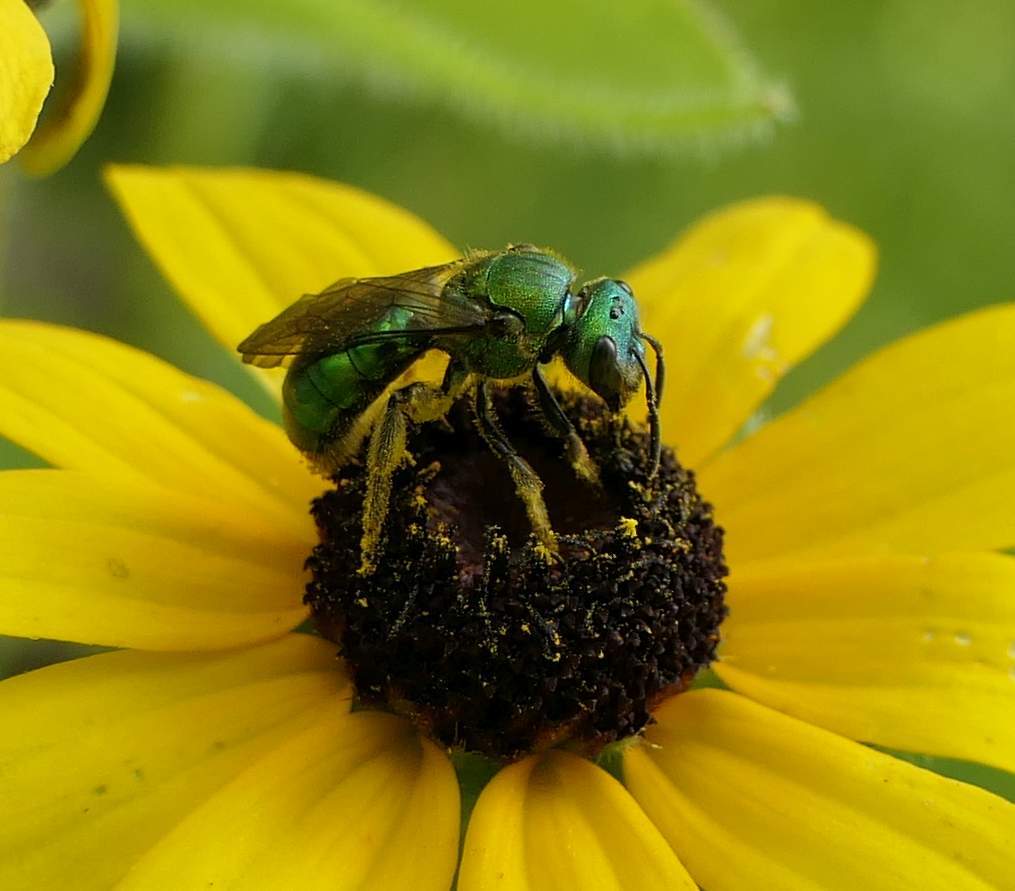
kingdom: Animalia
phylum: Arthropoda
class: Insecta
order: Hymenoptera
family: Halictidae
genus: Augochlora
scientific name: Augochlora pura
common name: Pure green sweat bee
